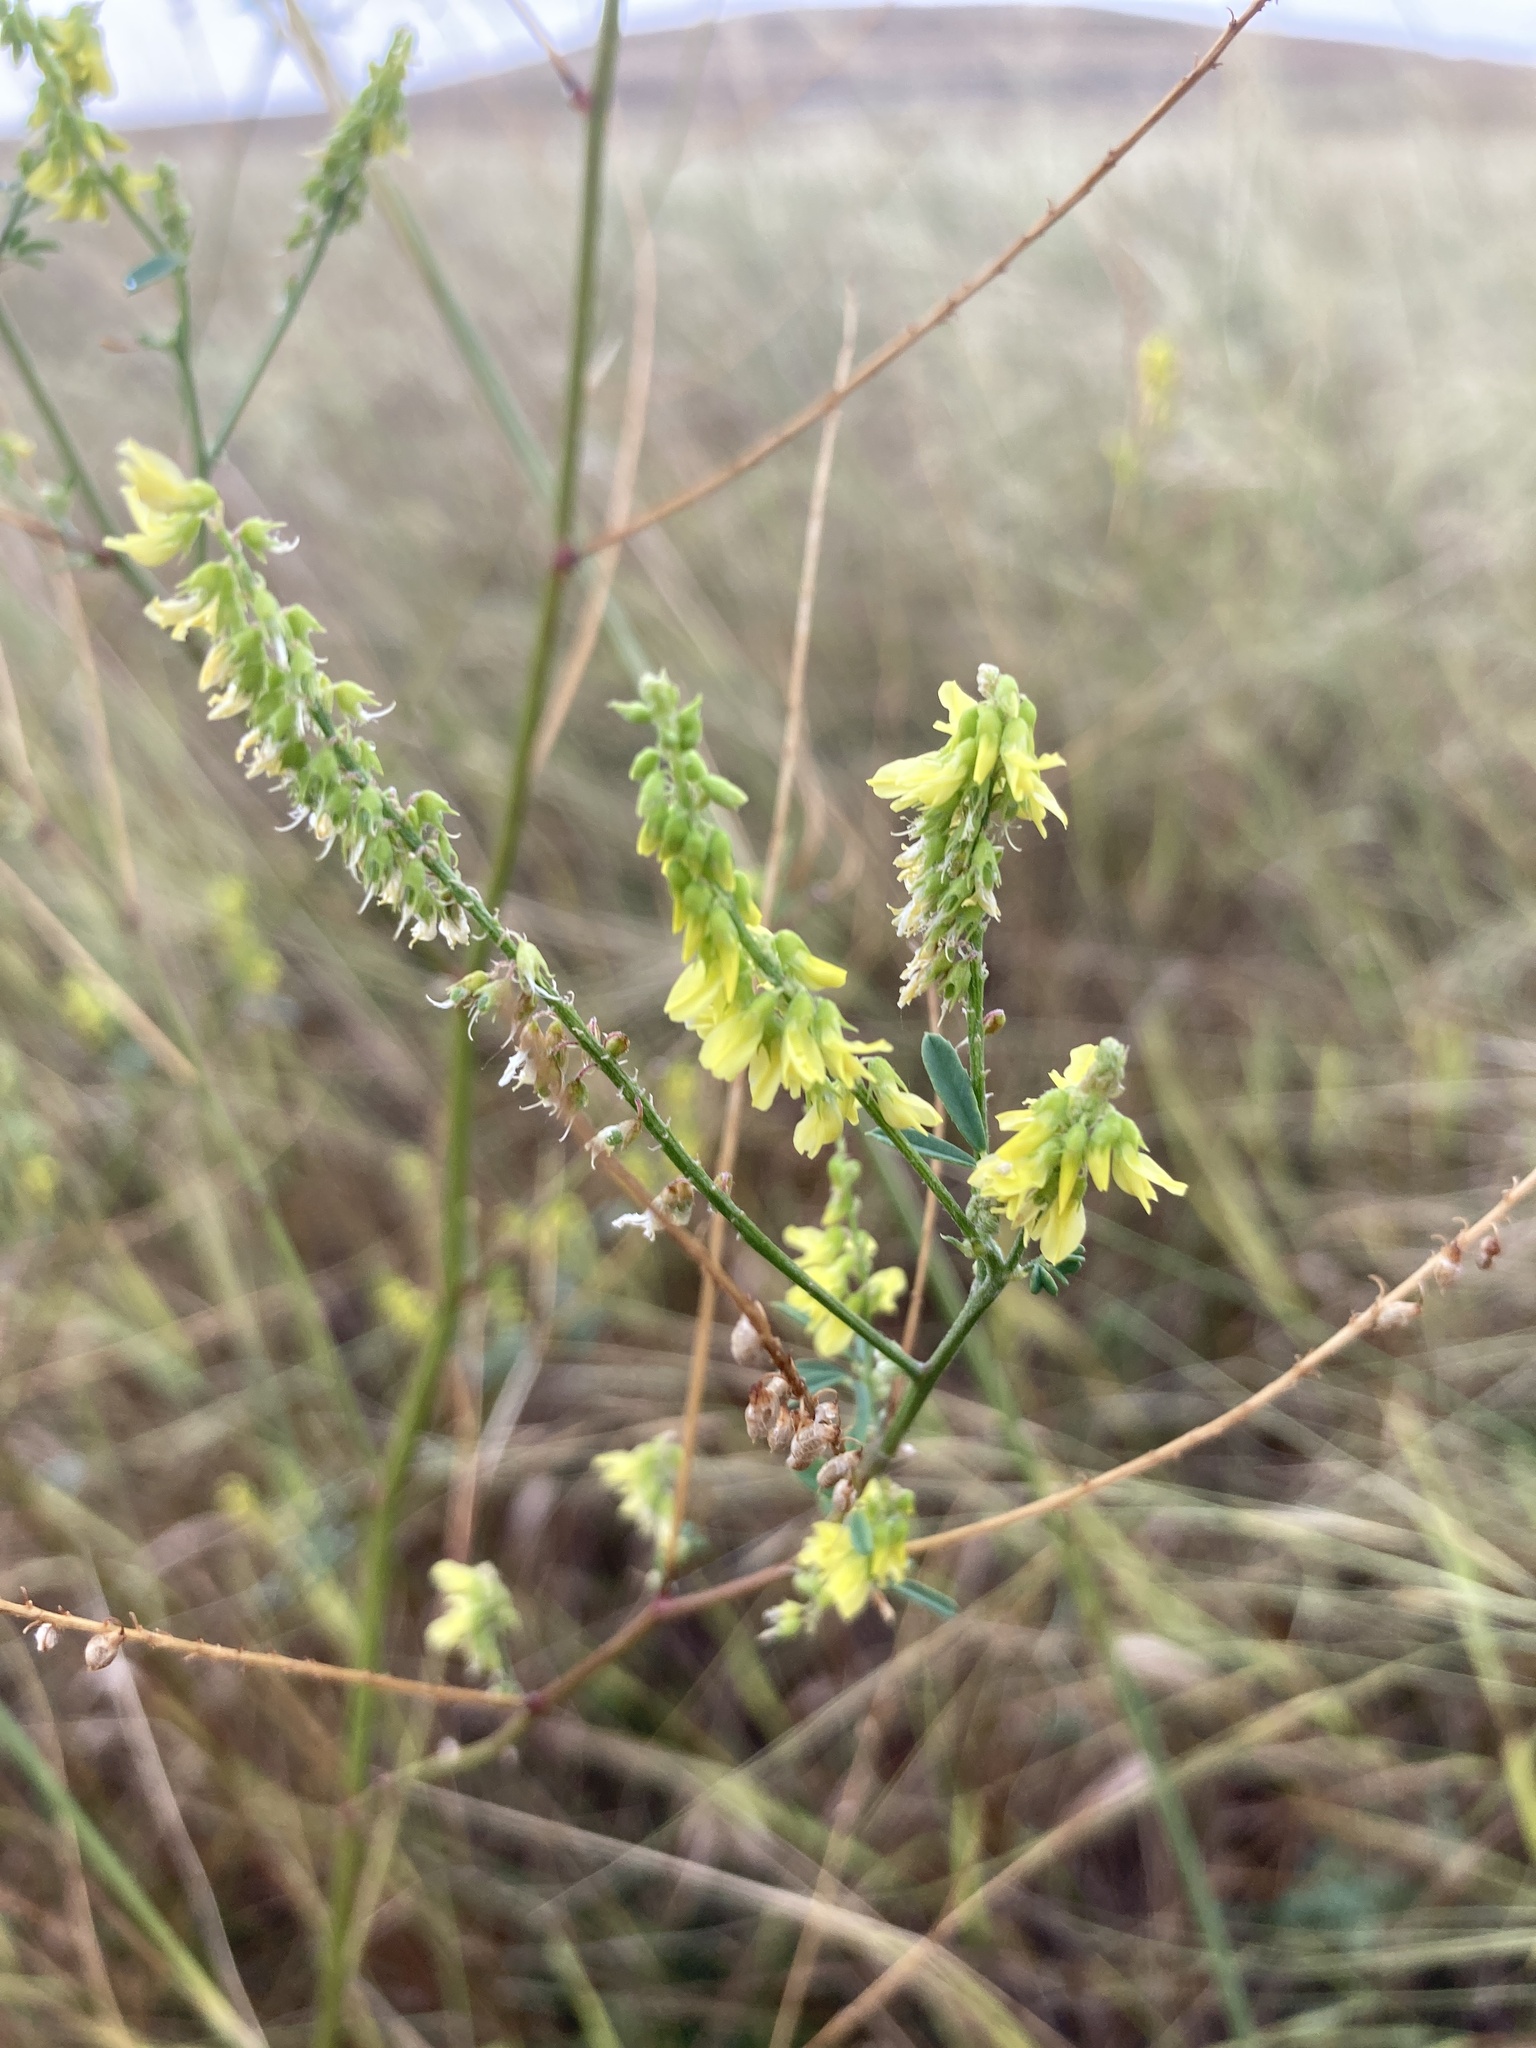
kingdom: Plantae
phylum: Tracheophyta
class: Magnoliopsida
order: Fabales
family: Fabaceae
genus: Melilotus
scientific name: Melilotus officinalis
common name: Sweetclover
